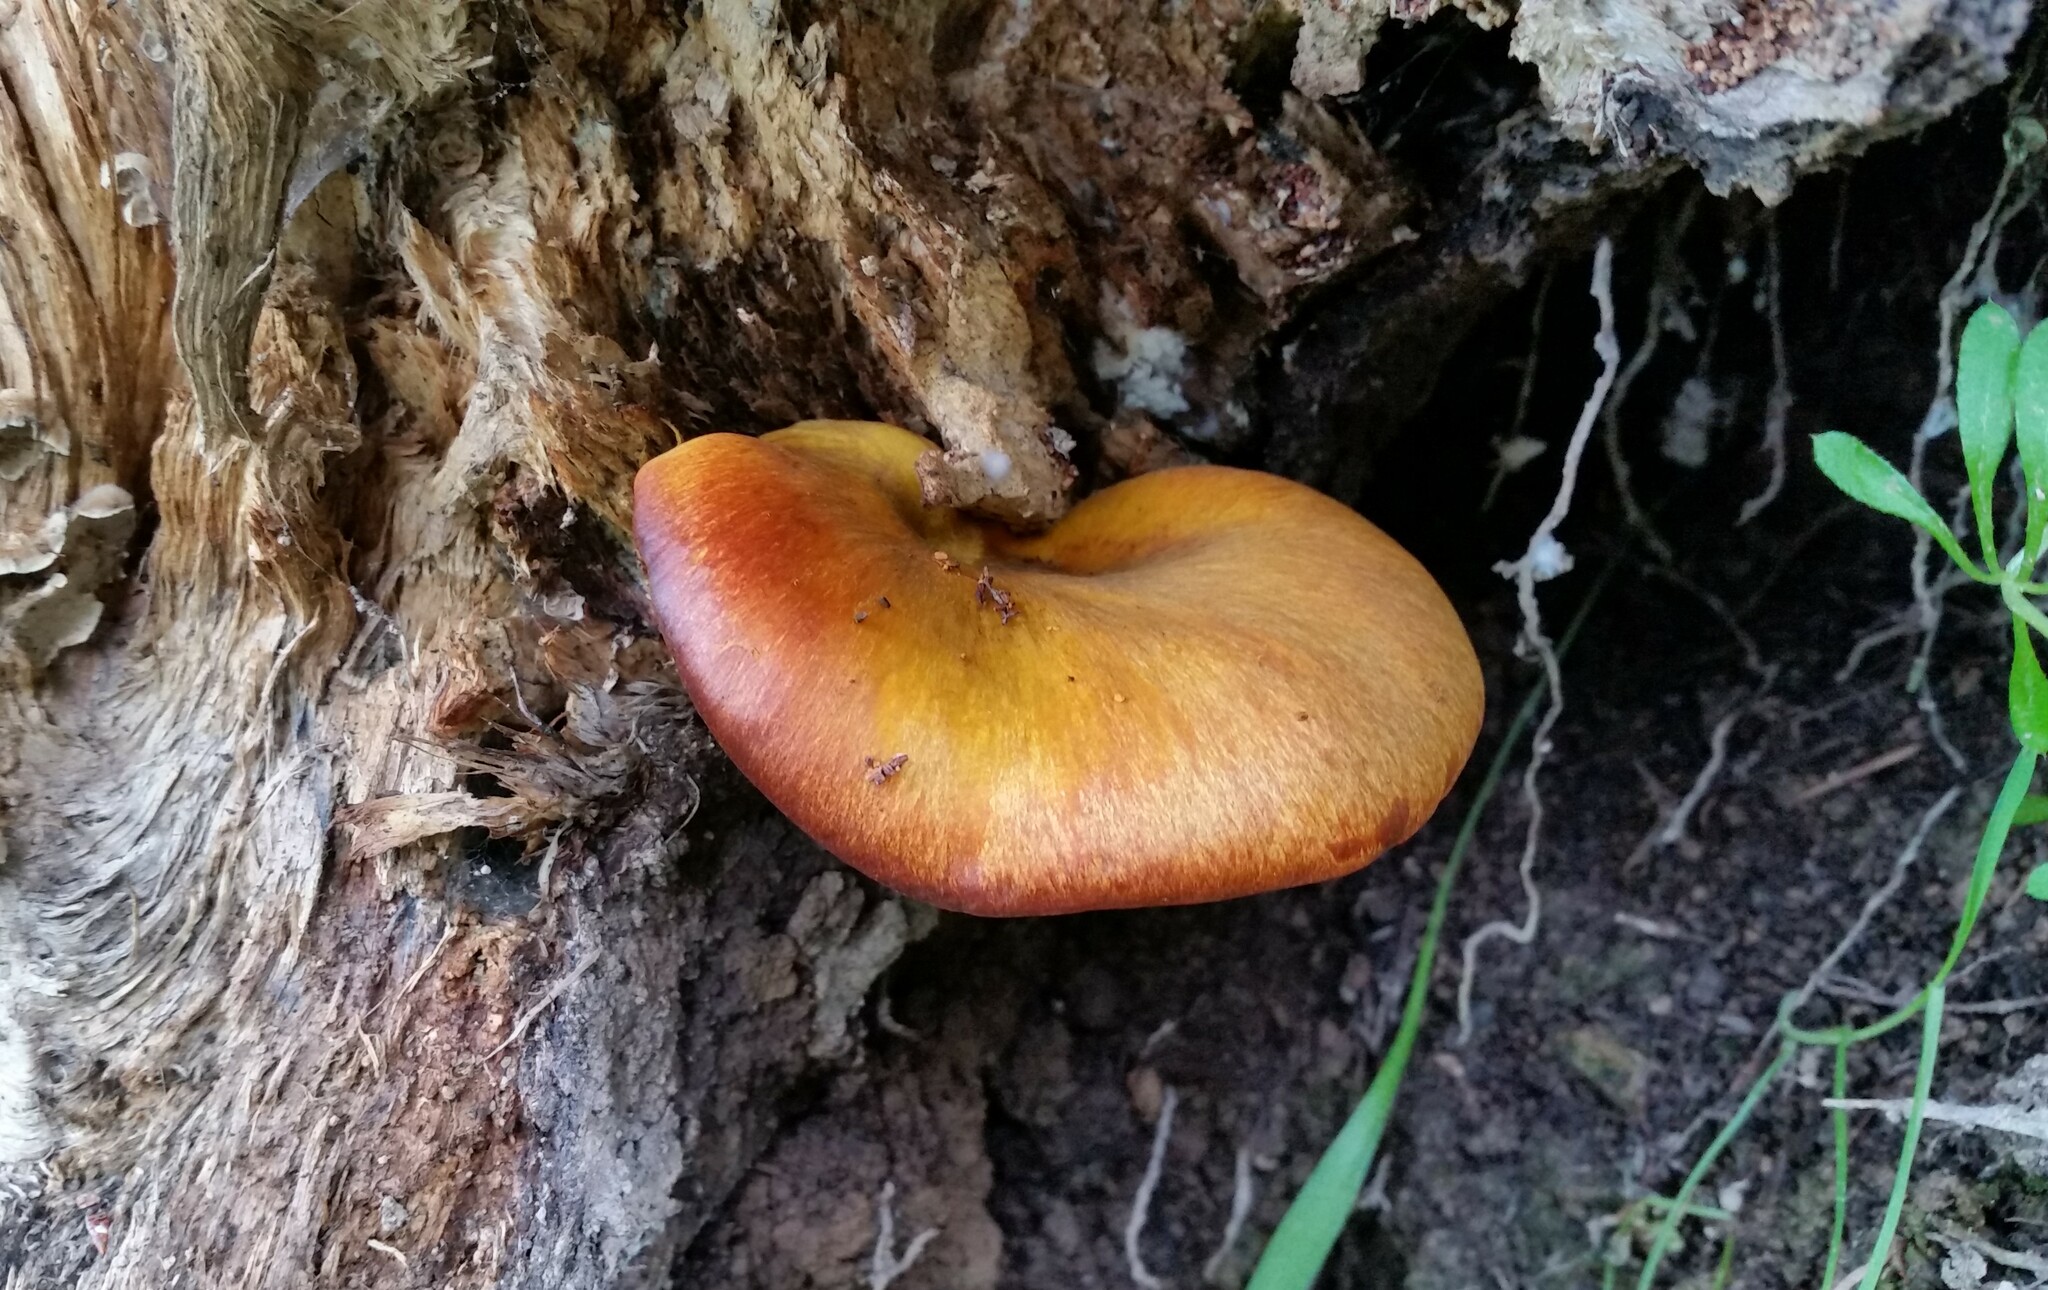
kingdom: Fungi
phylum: Basidiomycota
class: Agaricomycetes
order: Agaricales
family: Omphalotaceae
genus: Omphalotus
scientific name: Omphalotus olivascens
